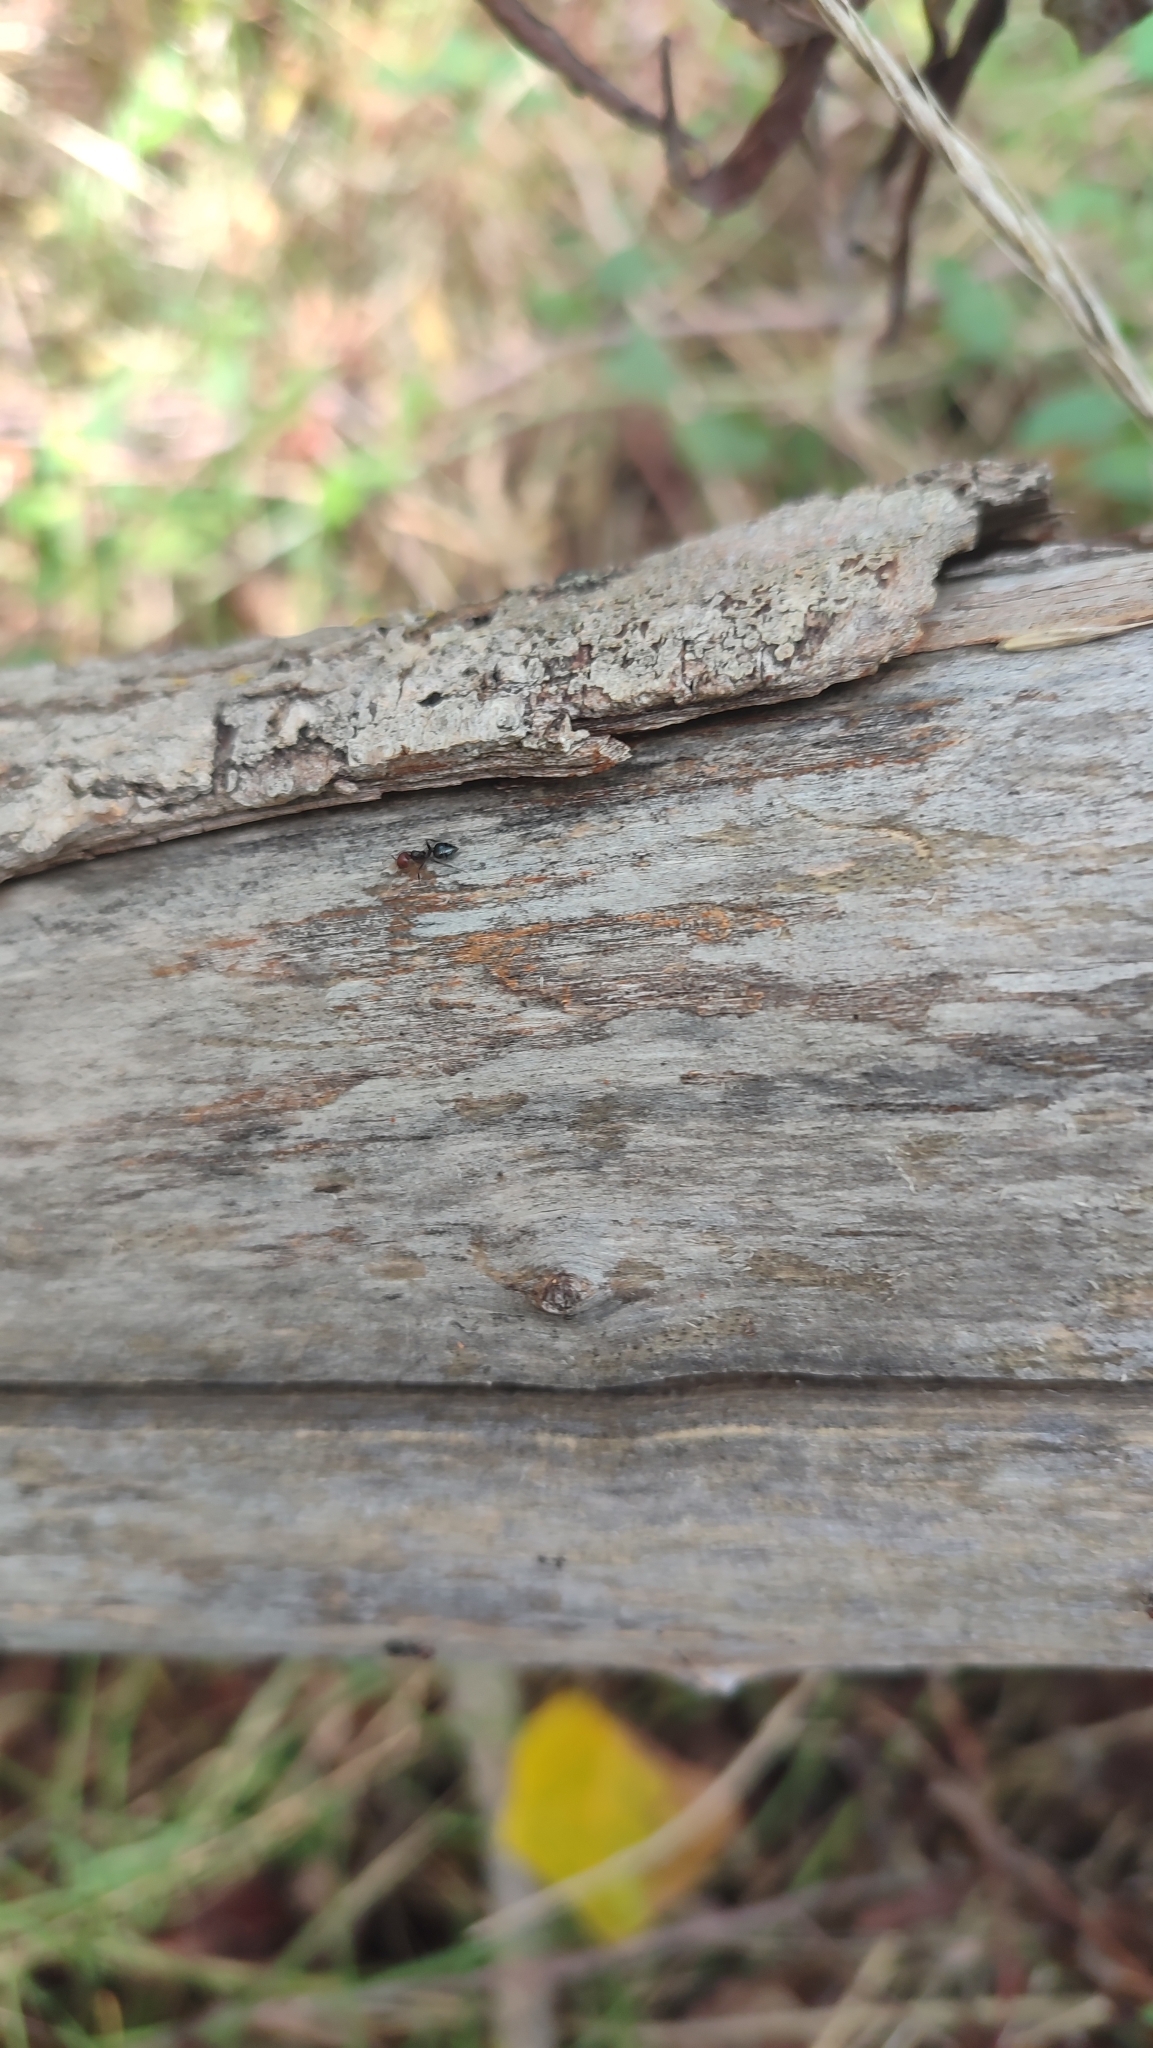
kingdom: Animalia
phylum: Arthropoda
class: Insecta
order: Hymenoptera
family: Formicidae
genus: Crematogaster
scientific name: Crematogaster scutellaris
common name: Fourmi du liège
